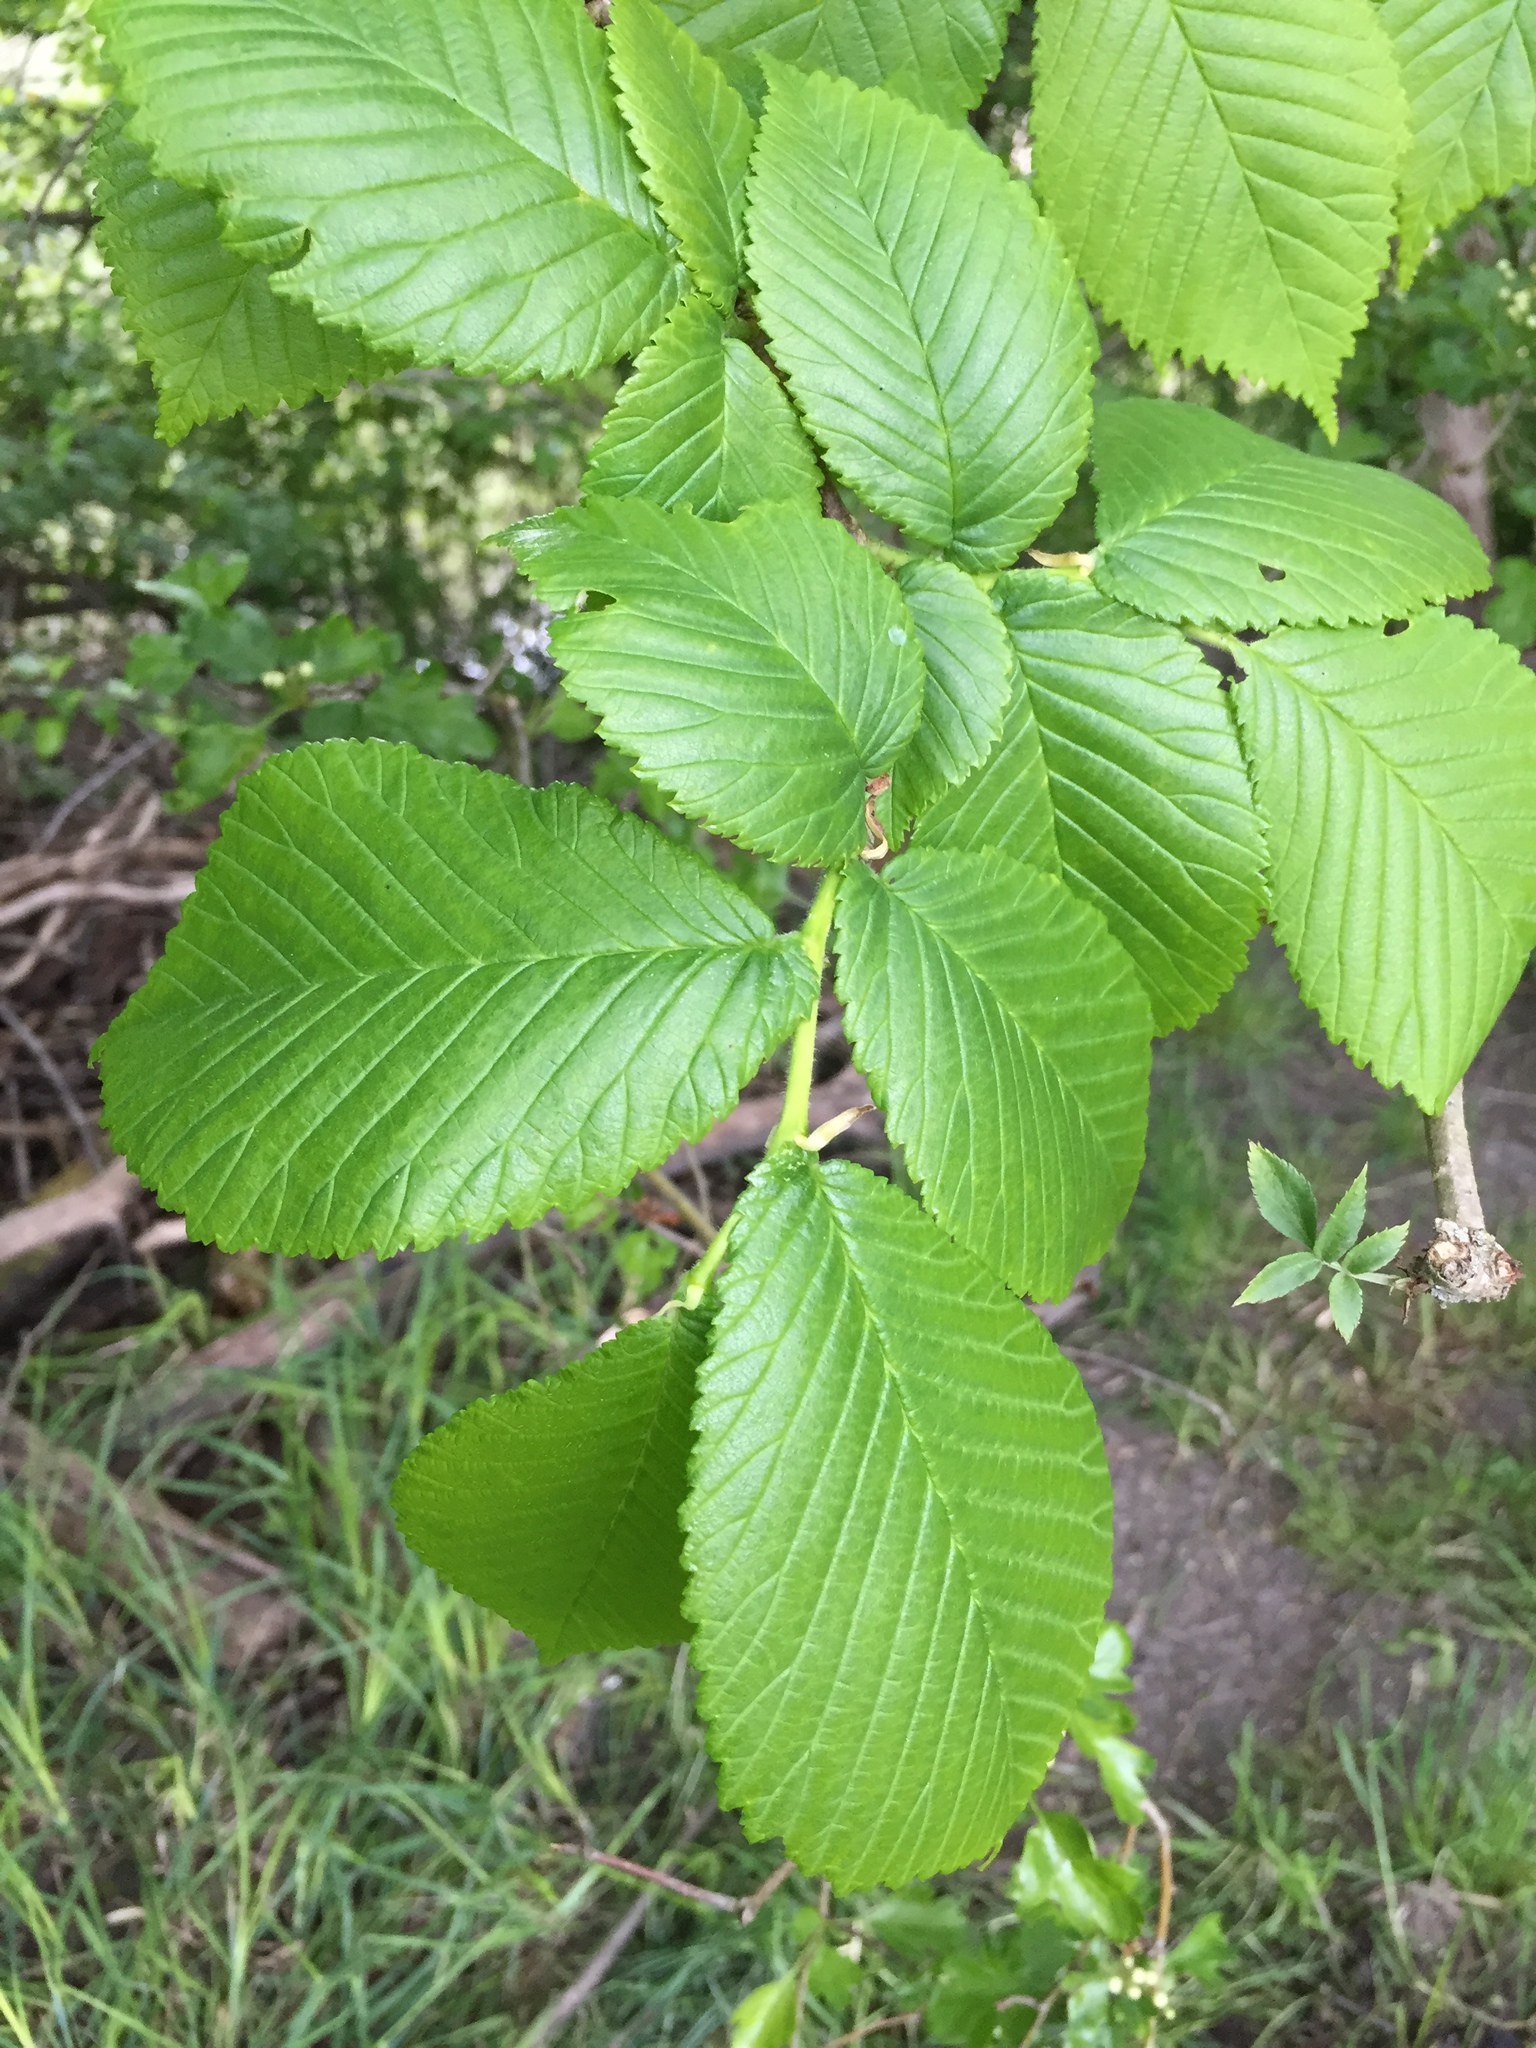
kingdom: Plantae
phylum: Tracheophyta
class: Magnoliopsida
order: Rosales
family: Ulmaceae
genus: Ulmus
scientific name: Ulmus glabra
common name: Wych elm
